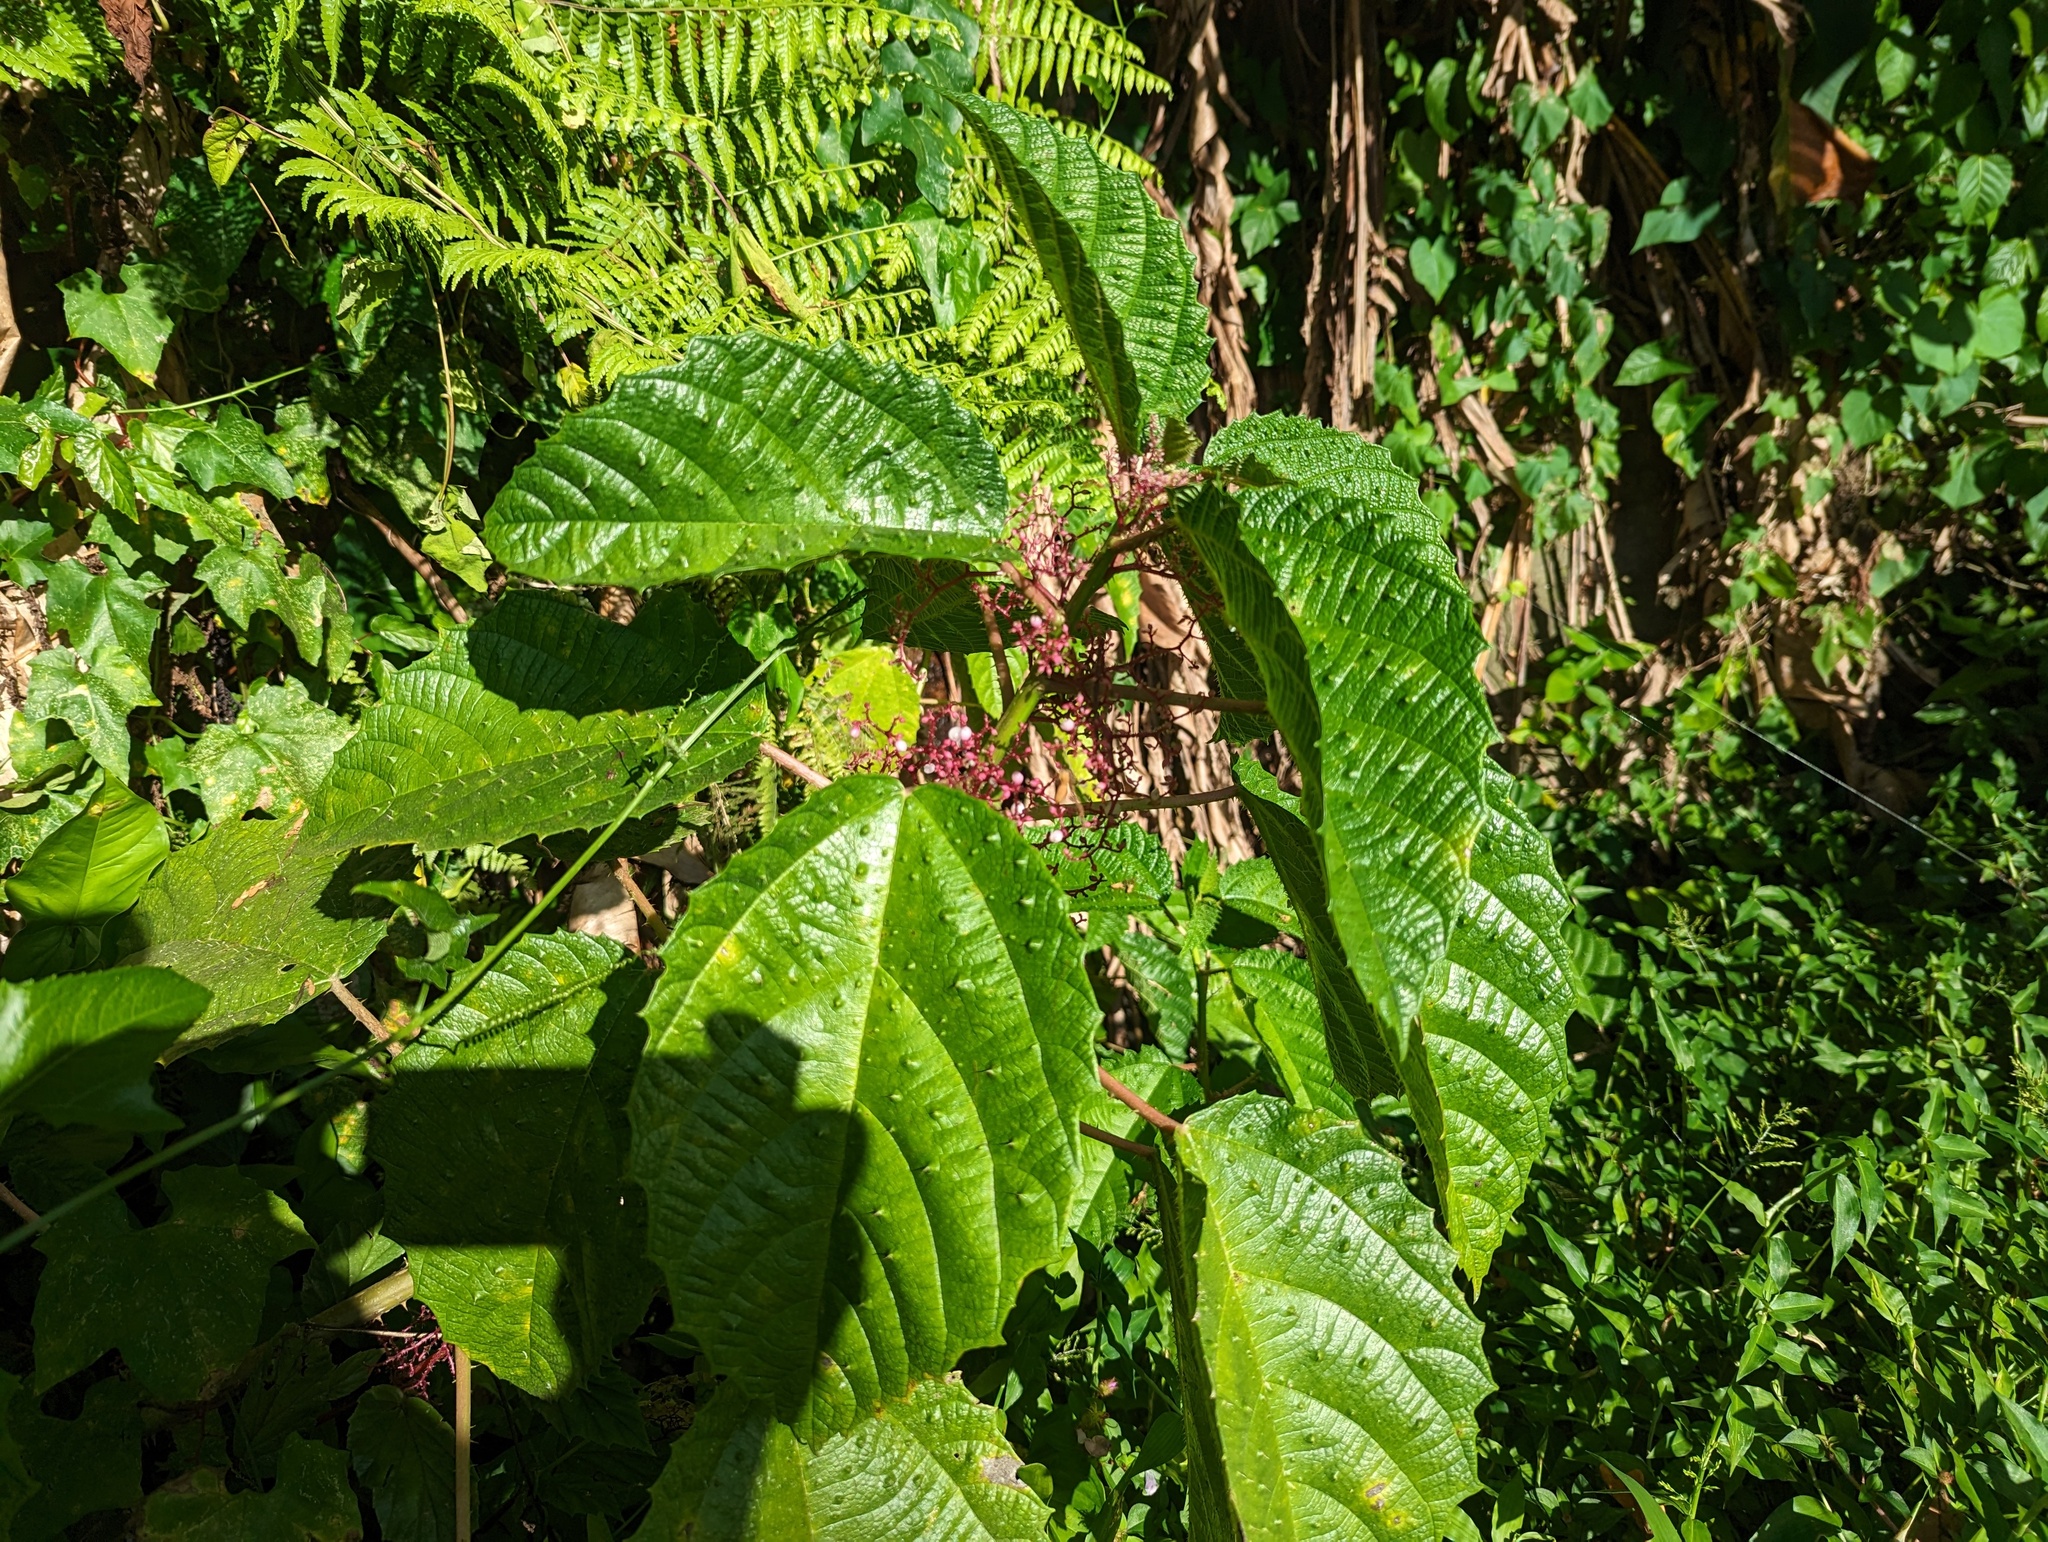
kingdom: Plantae
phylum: Tracheophyta
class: Magnoliopsida
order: Rosales
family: Urticaceae
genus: Urera
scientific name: Urera baccifera
